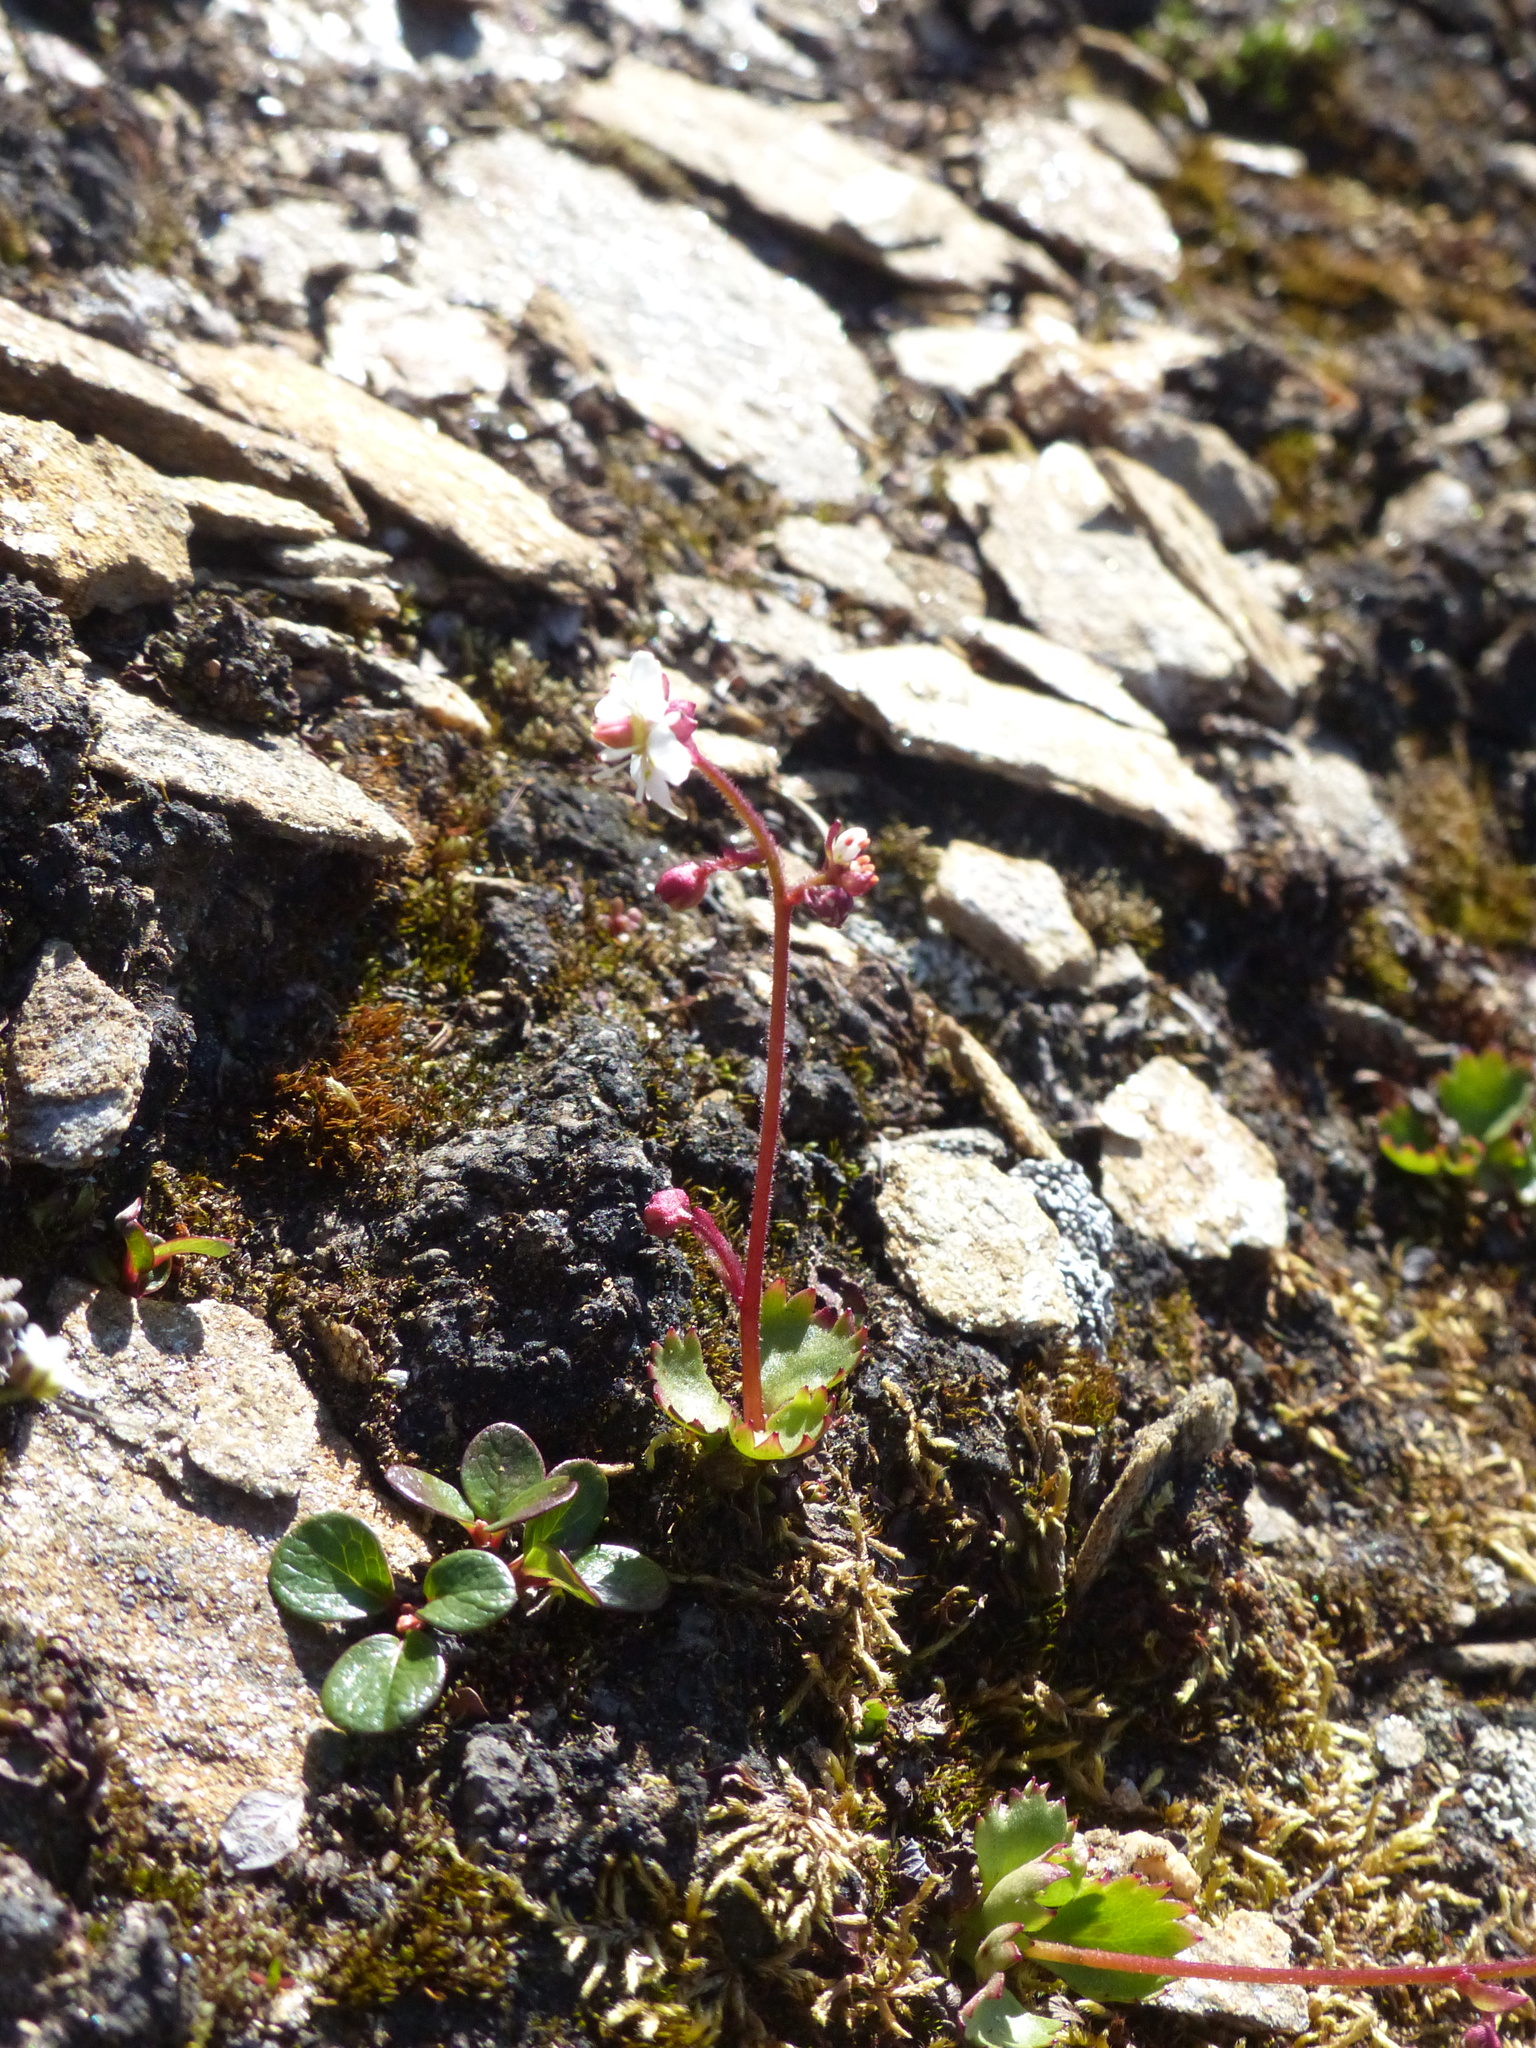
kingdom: Plantae
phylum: Tracheophyta
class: Magnoliopsida
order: Saxifragales
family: Saxifragaceae
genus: Micranthes
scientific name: Micranthes lyallii
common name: Lyall's saxifrage
